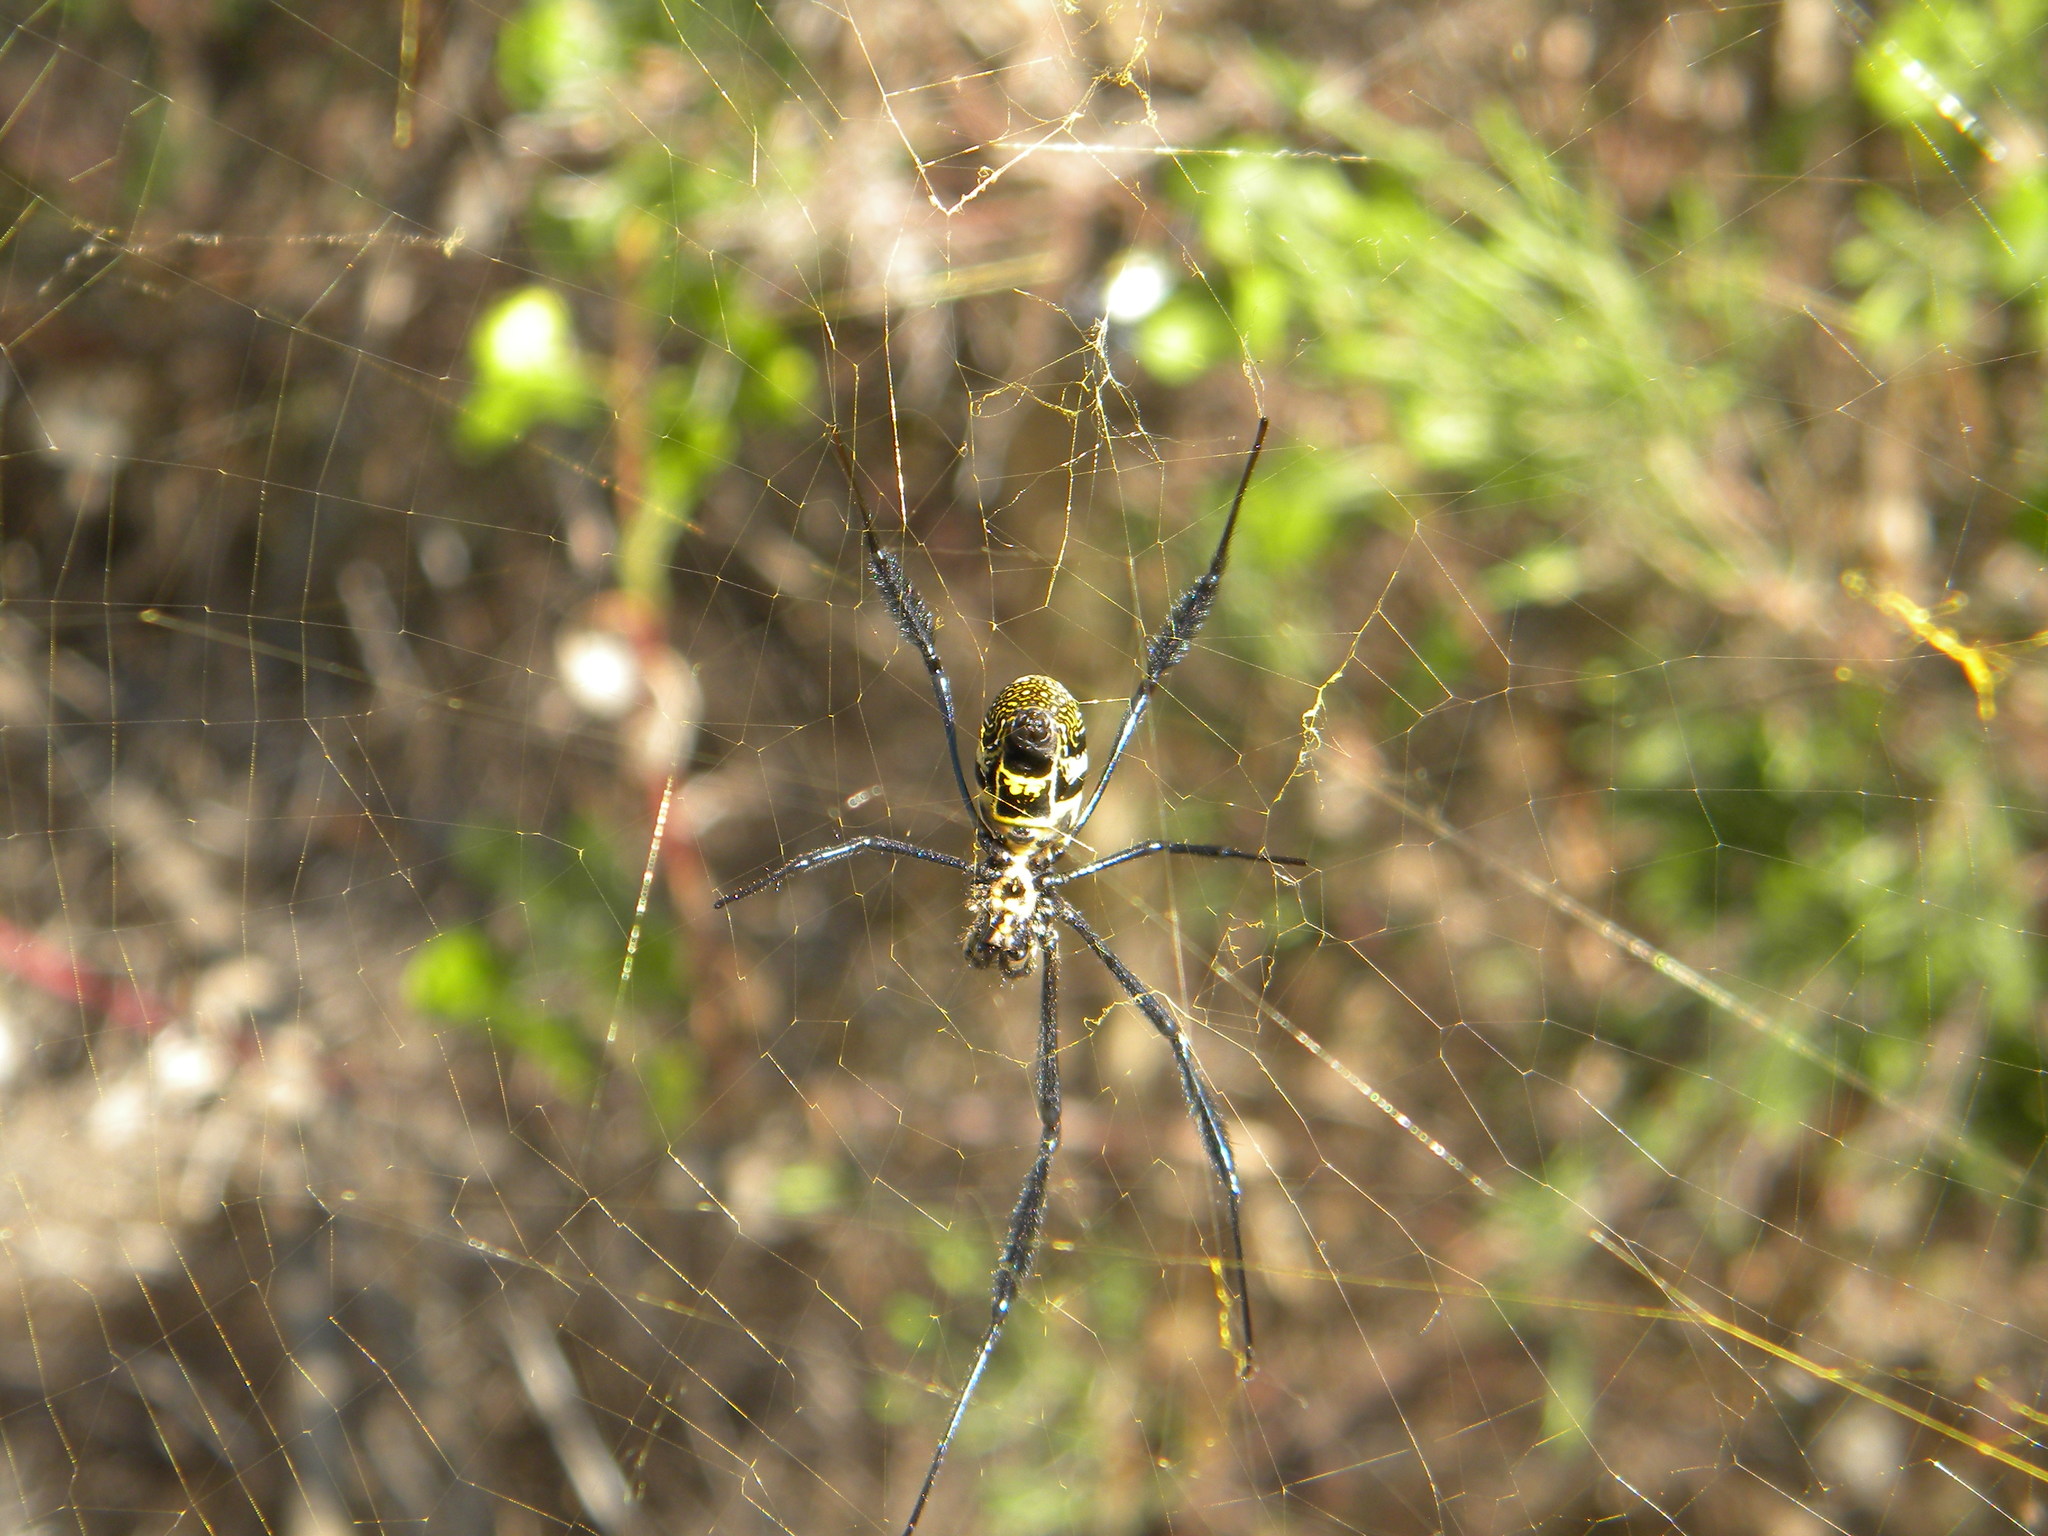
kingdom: Animalia
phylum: Arthropoda
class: Arachnida
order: Araneae
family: Araneidae
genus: Trichonephila
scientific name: Trichonephila fenestrata
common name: Hairy golden orb weaver
